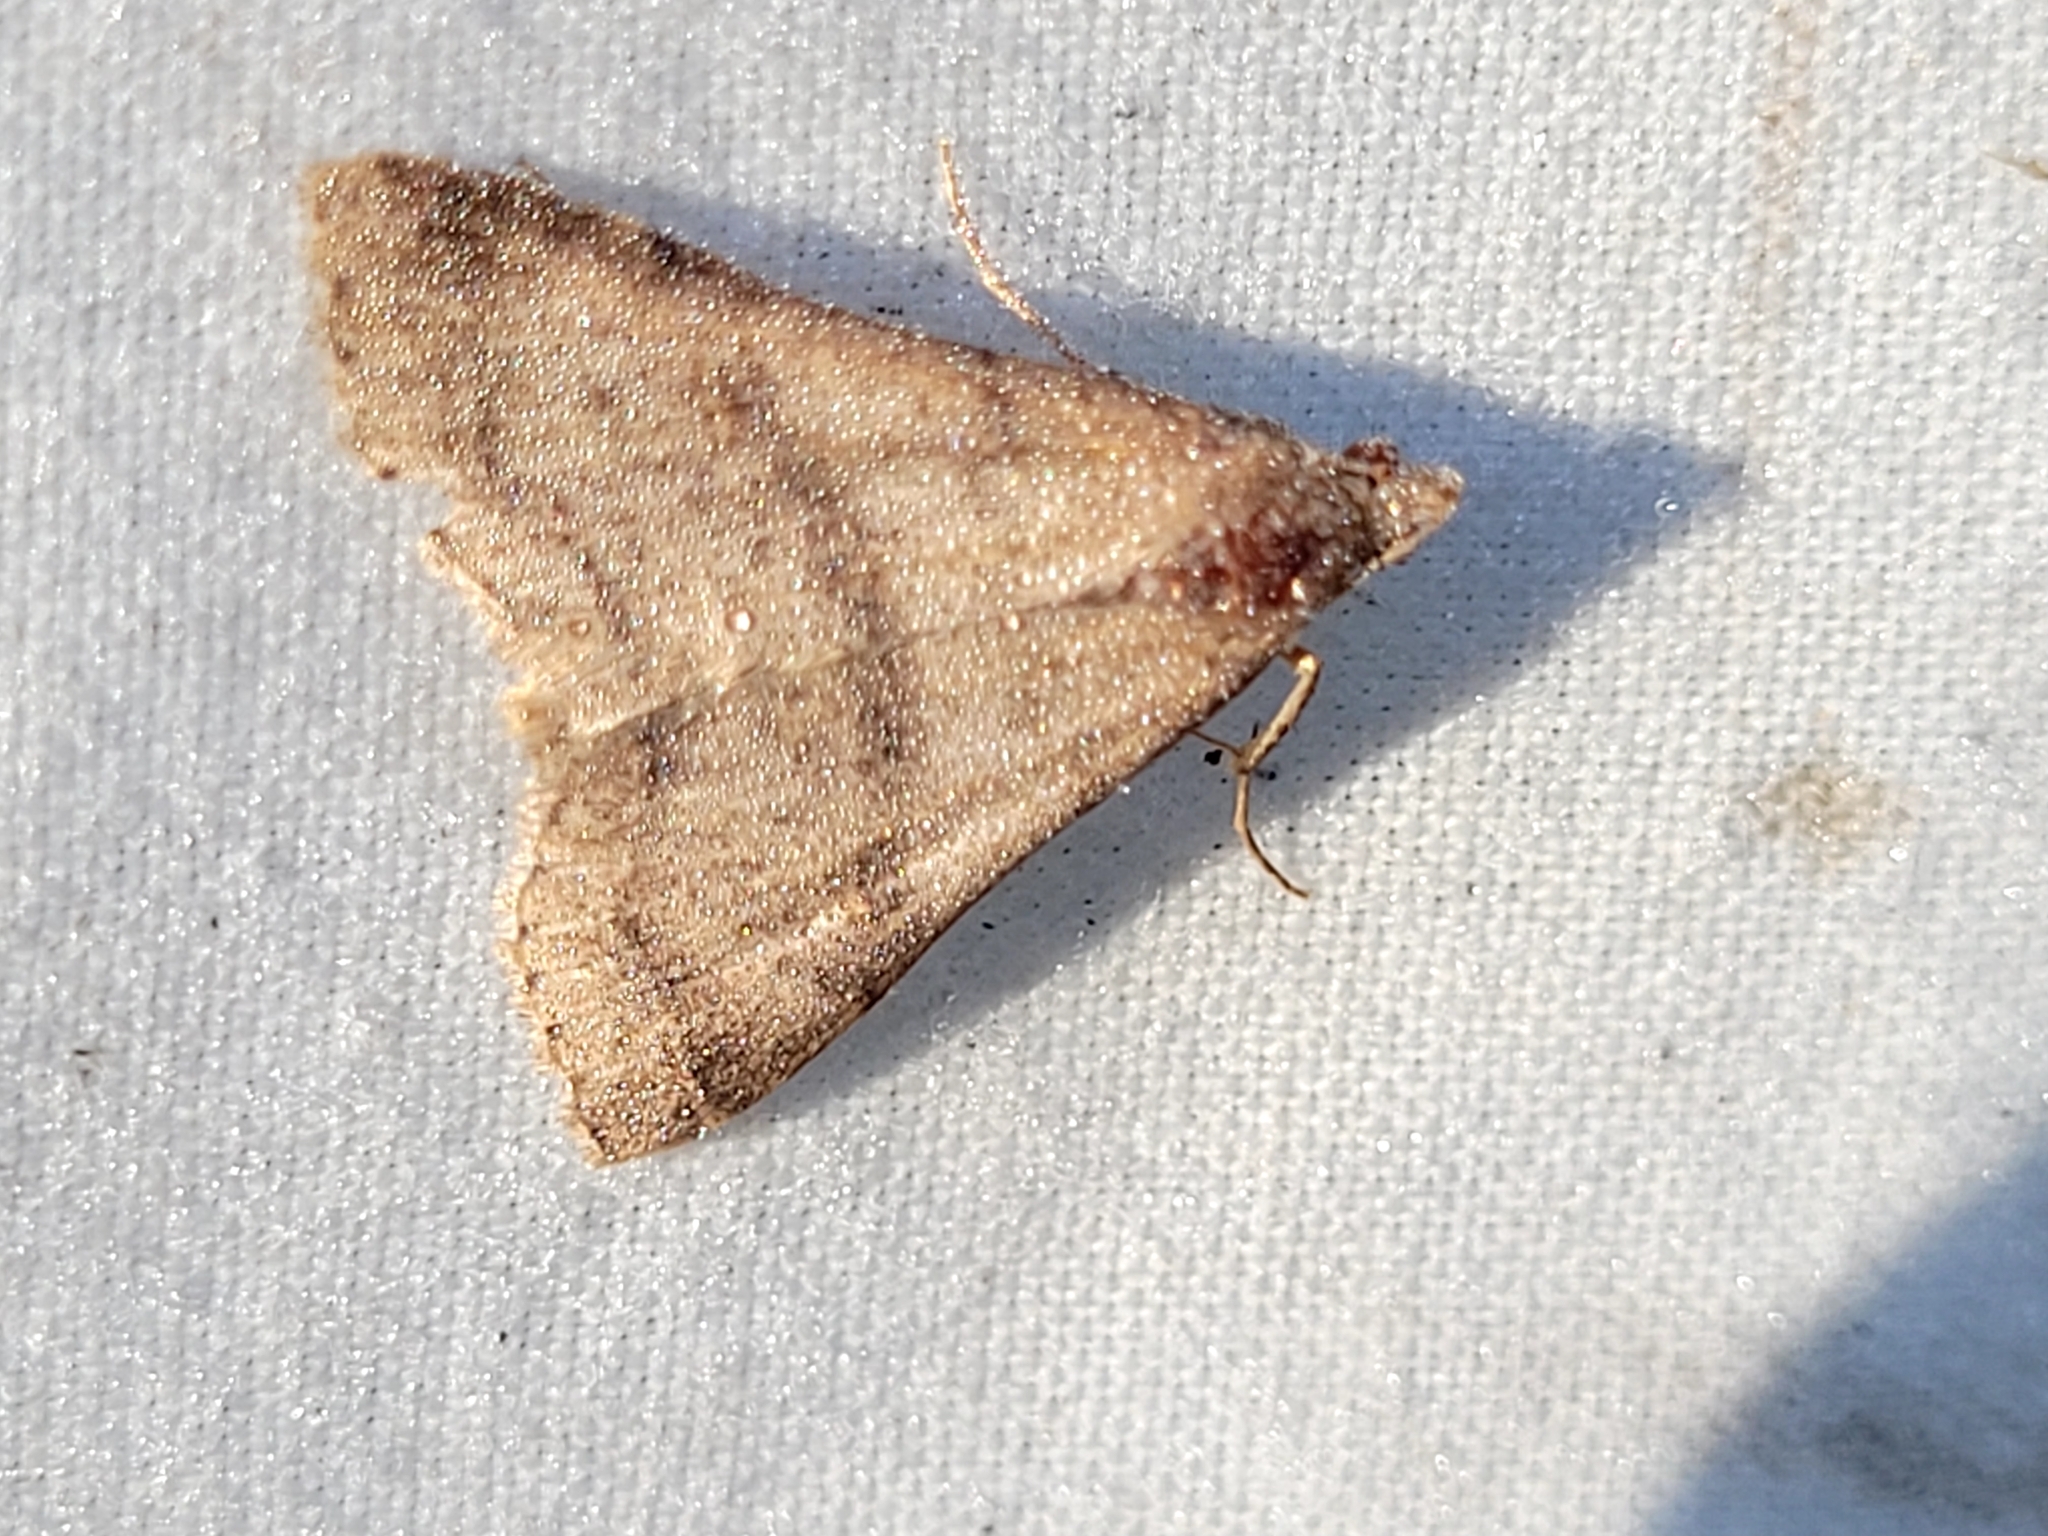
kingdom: Animalia
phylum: Arthropoda
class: Insecta
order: Lepidoptera
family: Erebidae
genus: Bleptina
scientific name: Bleptina caradrinalis
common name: Bent-winged owlet
